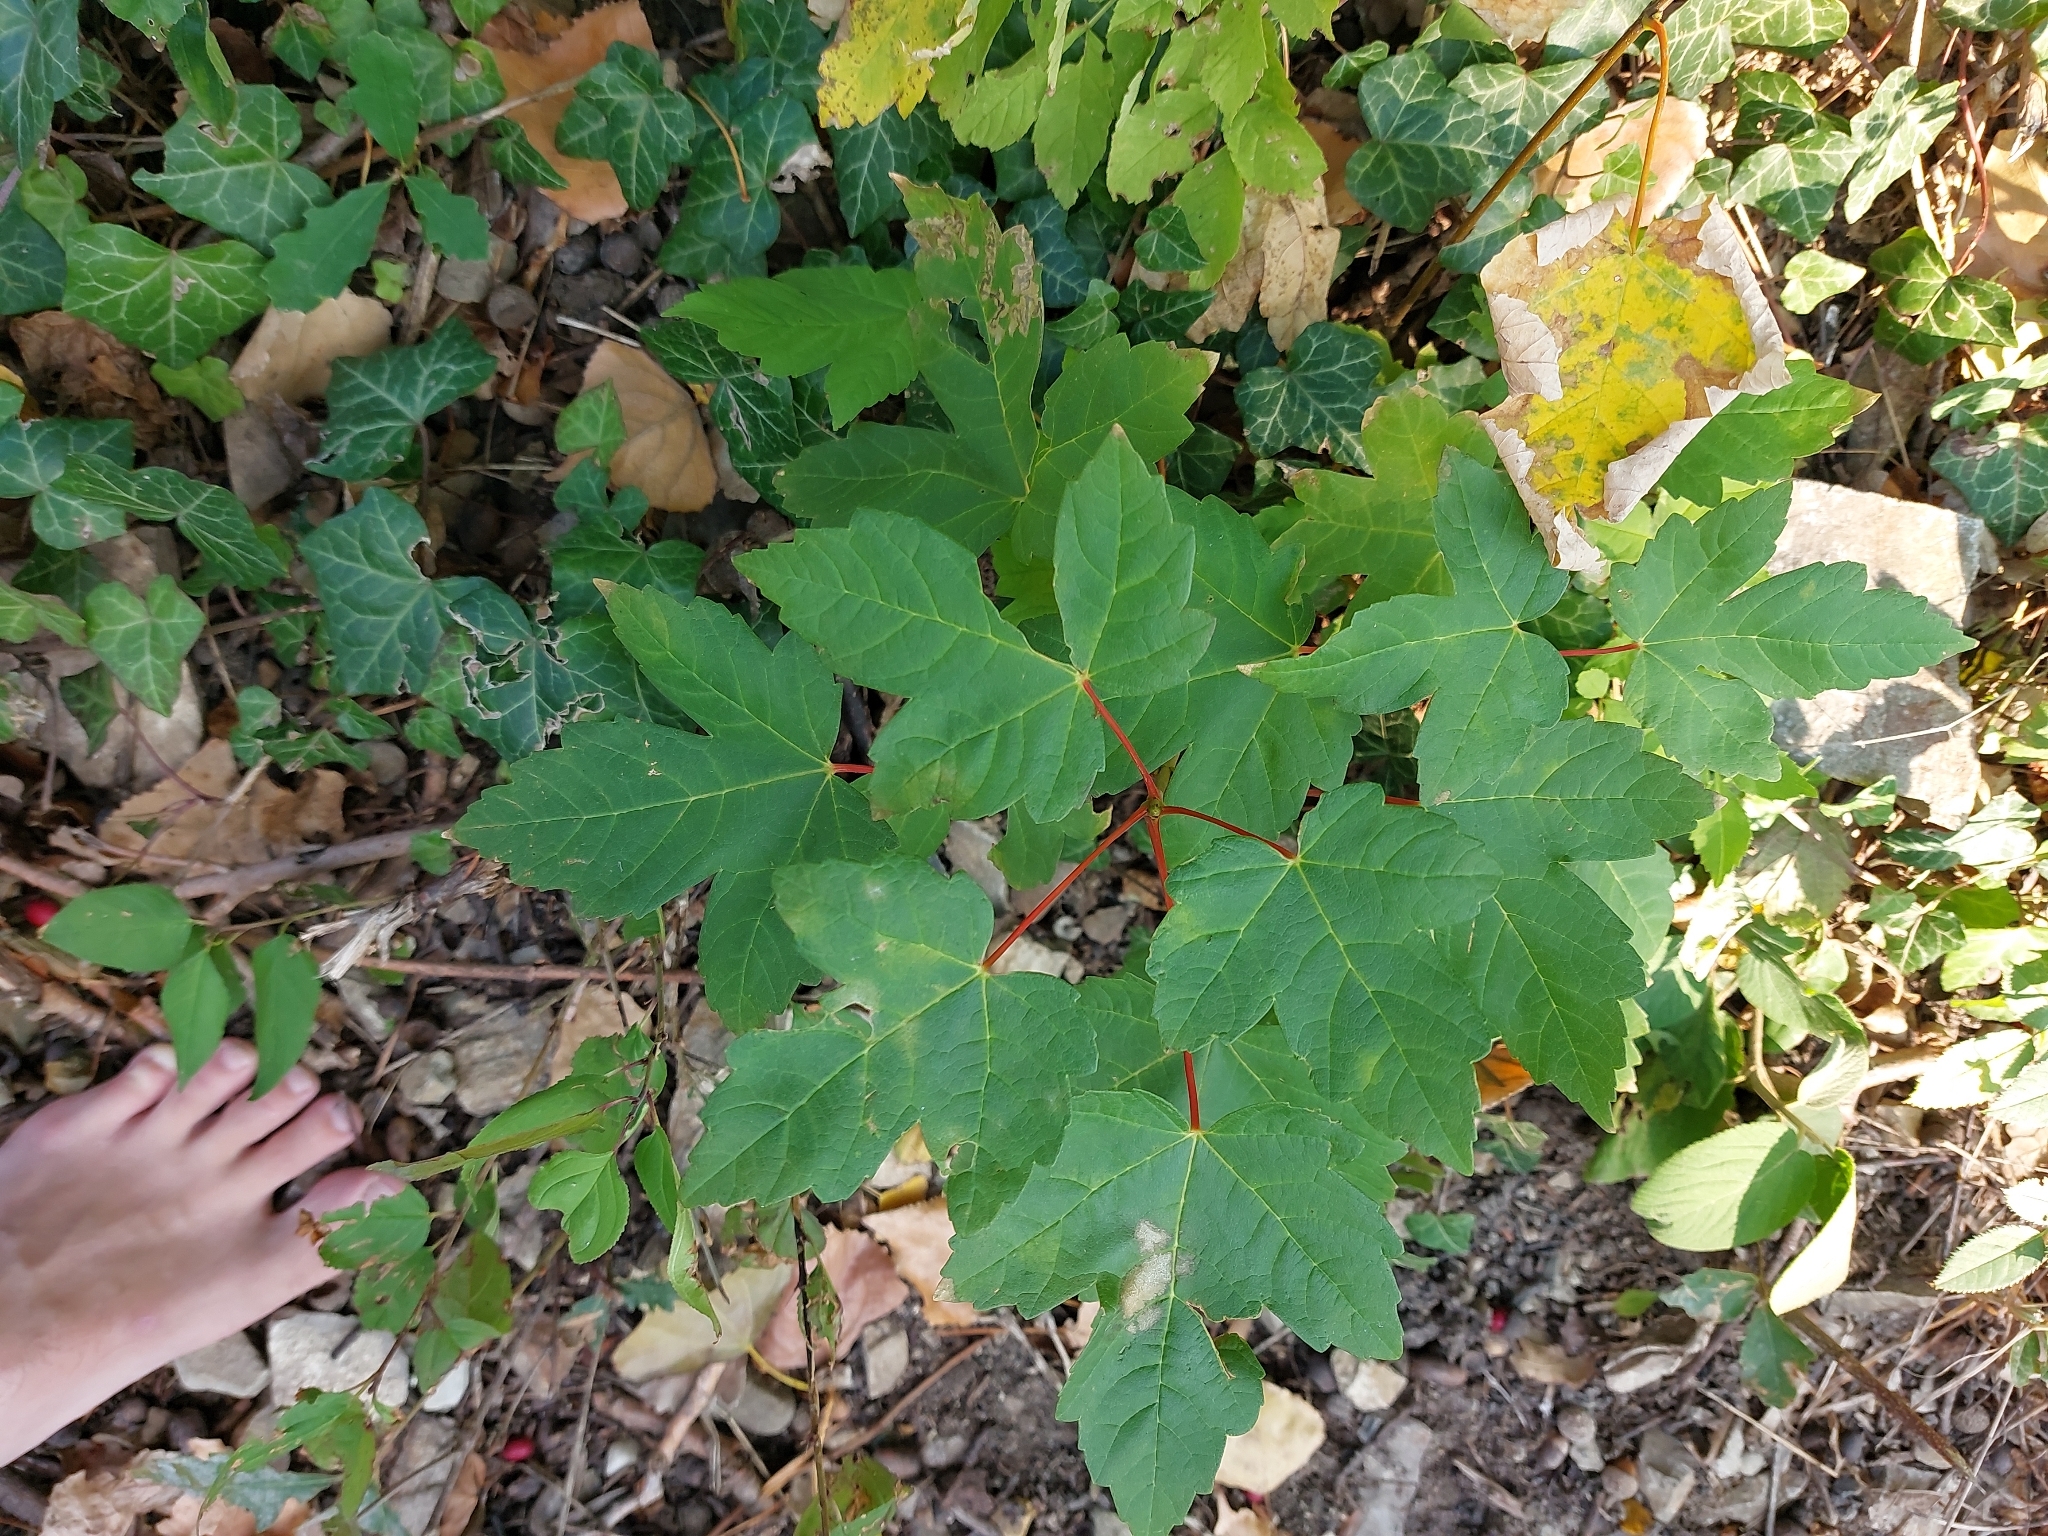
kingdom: Plantae
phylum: Tracheophyta
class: Magnoliopsida
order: Sapindales
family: Sapindaceae
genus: Acer
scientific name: Acer pseudoplatanus
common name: Sycamore
